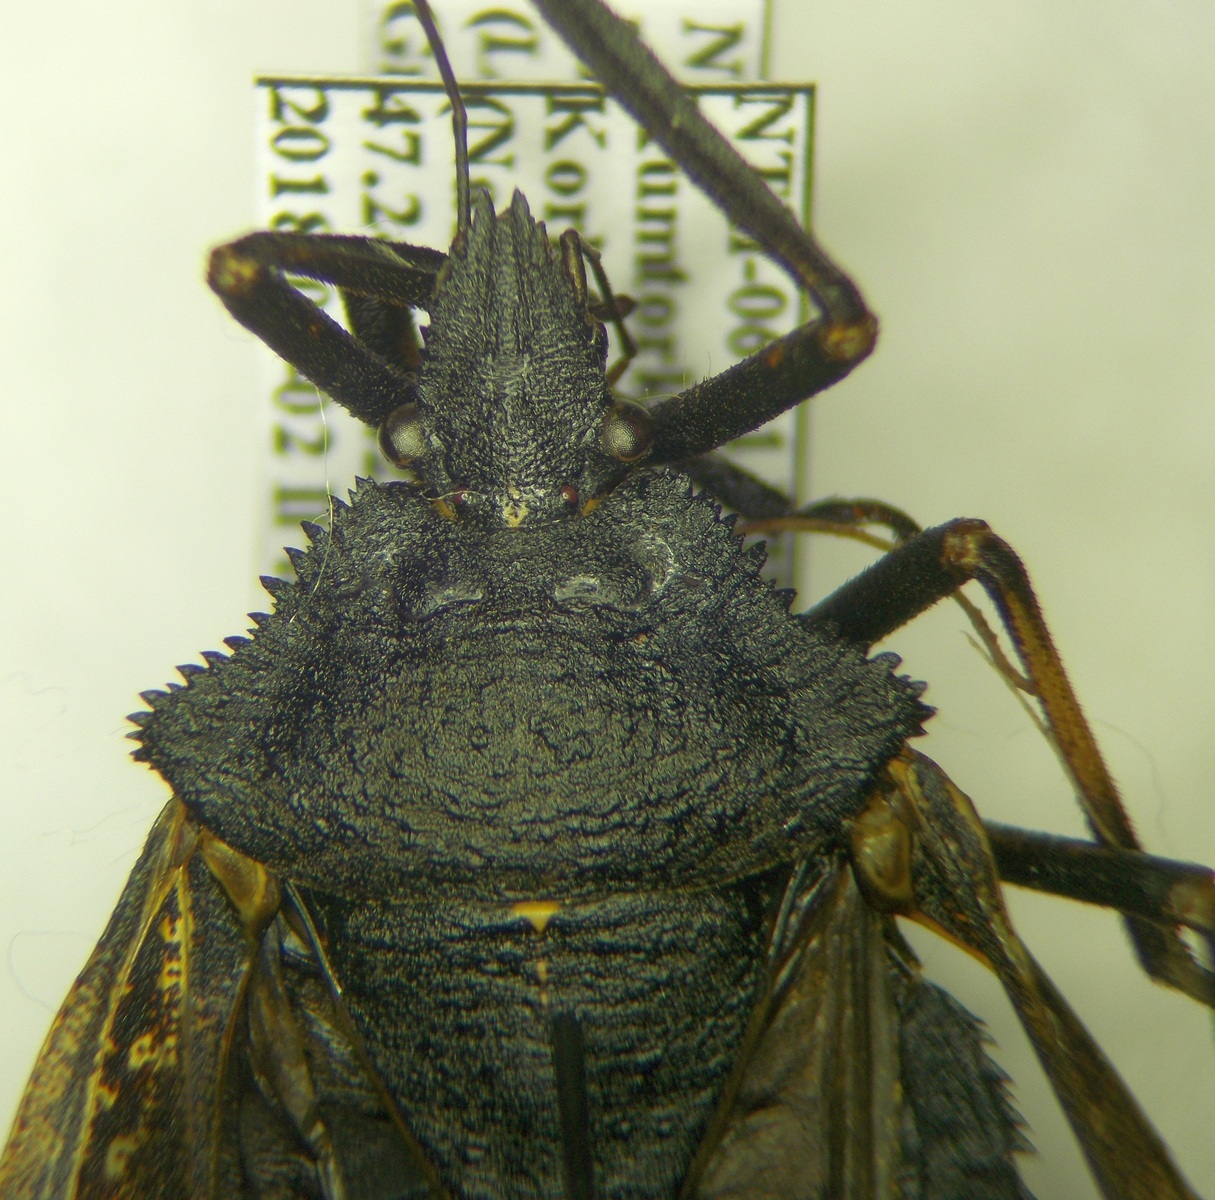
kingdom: Animalia
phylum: Arthropoda
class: Insecta
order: Hemiptera
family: Pentatomidae
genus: Mustha
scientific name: Mustha spinosula
